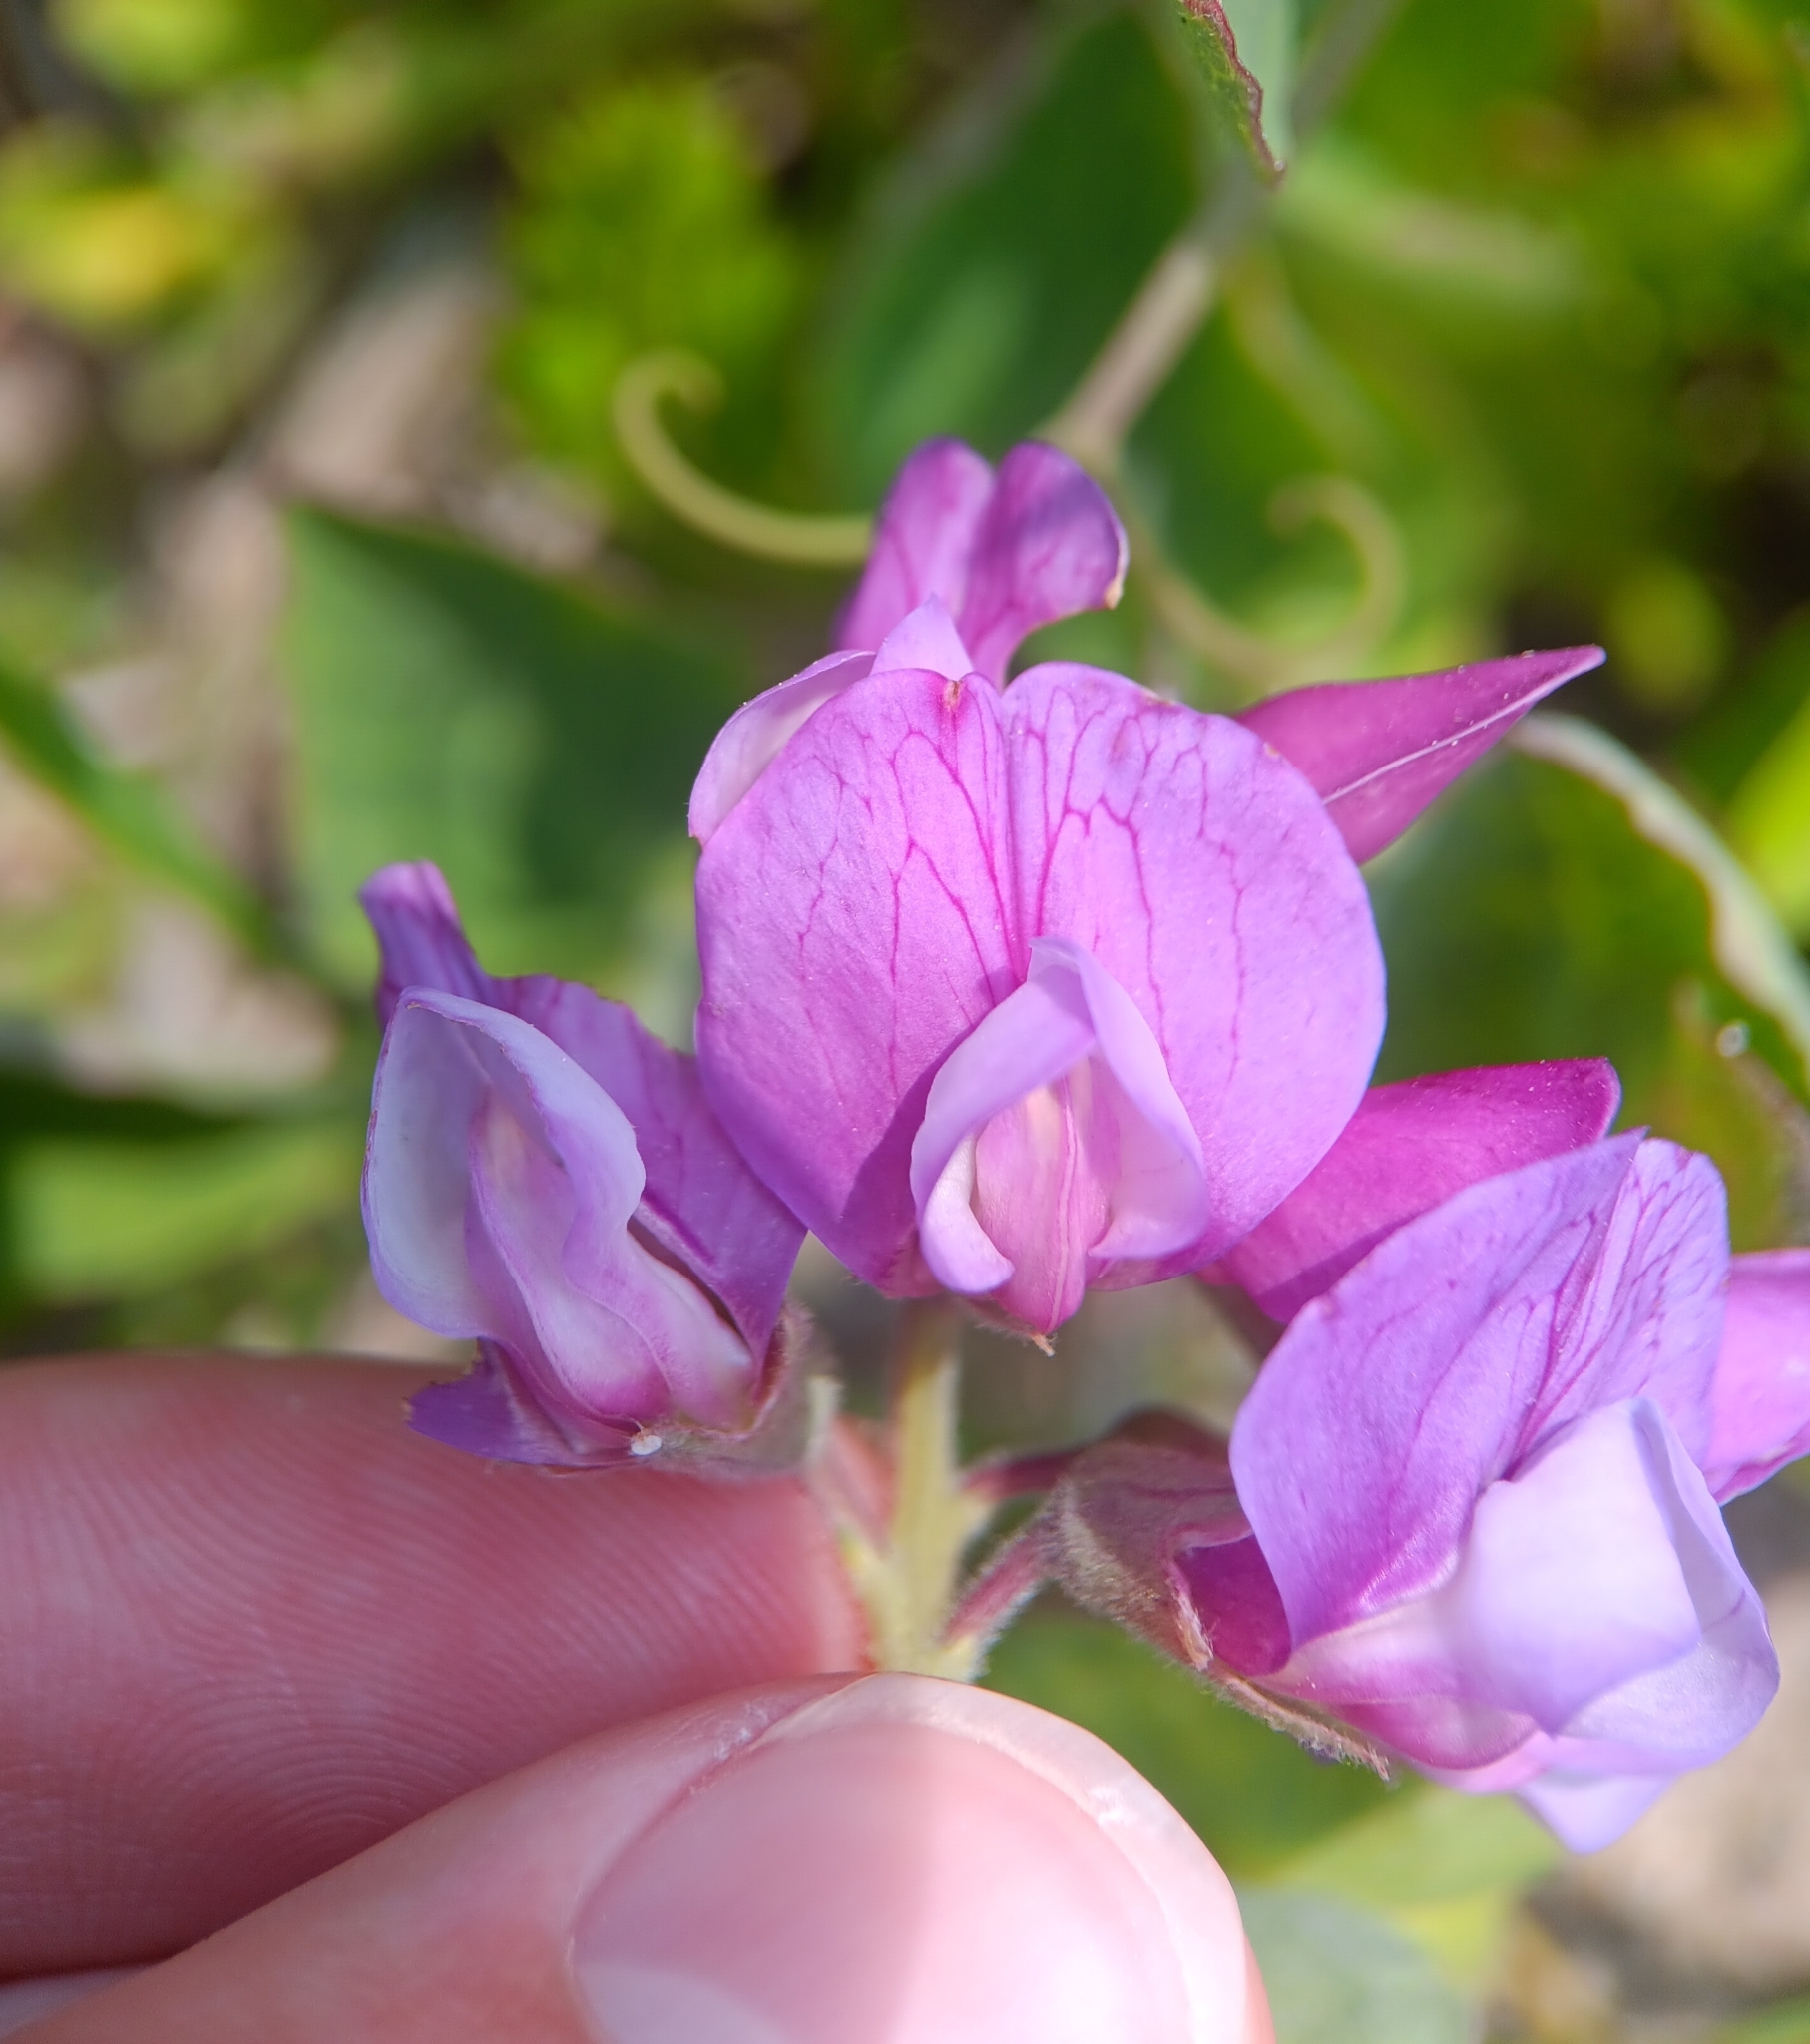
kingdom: Plantae
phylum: Tracheophyta
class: Magnoliopsida
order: Fabales
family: Fabaceae
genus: Lathyrus
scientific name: Lathyrus japonicus
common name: Sea pea
